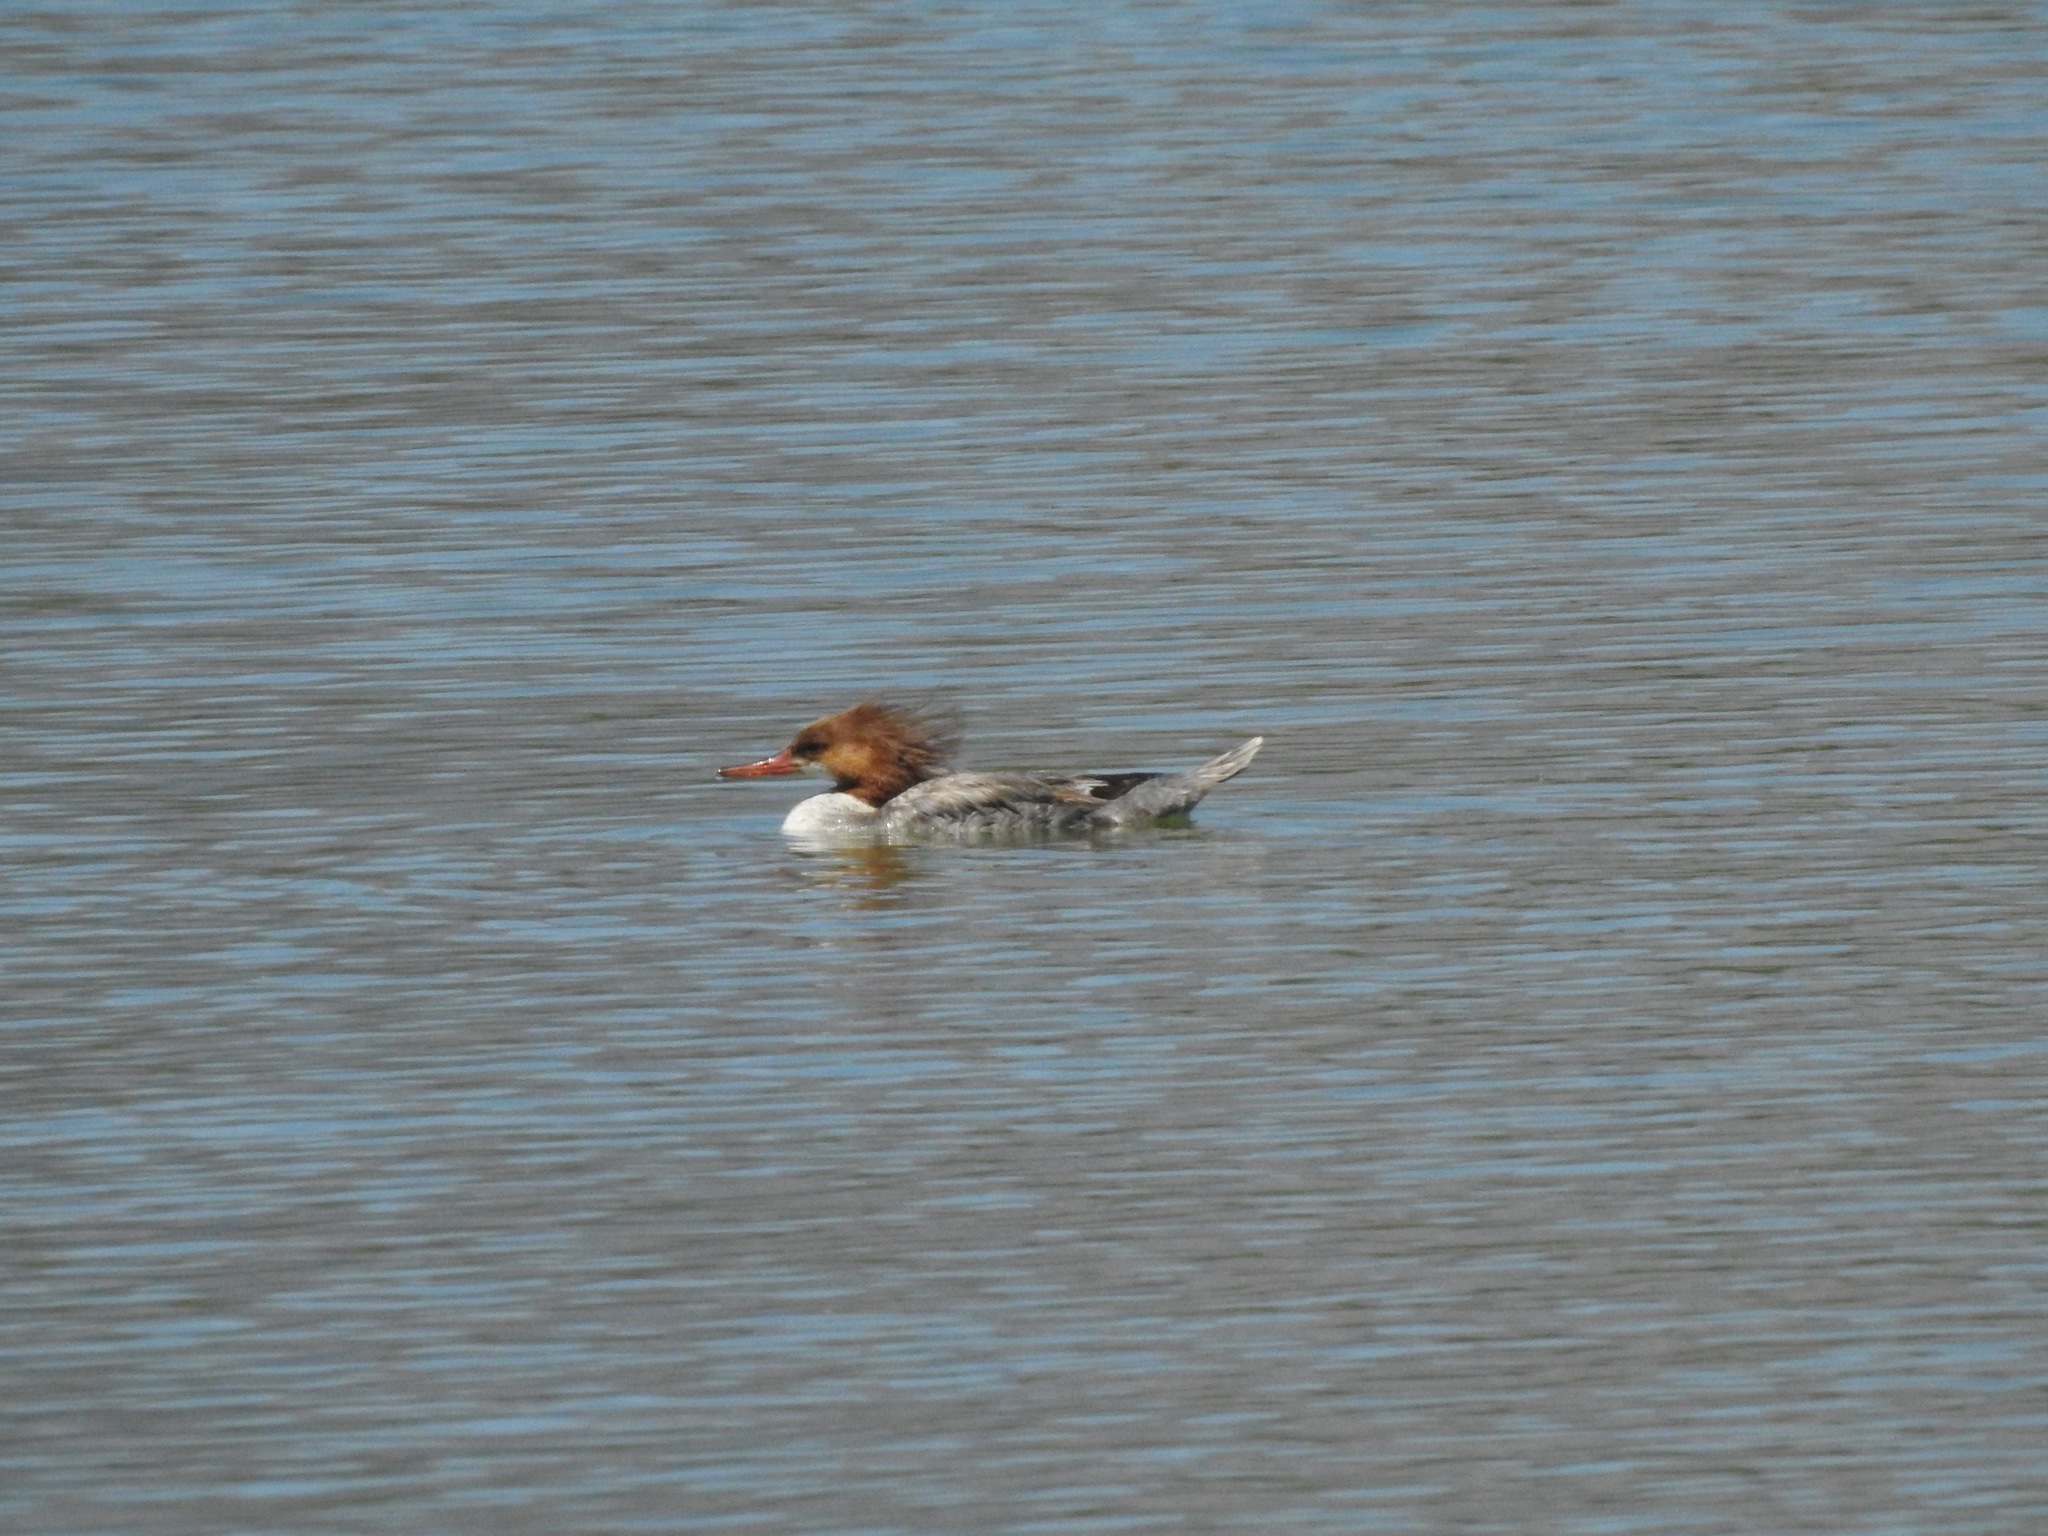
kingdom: Animalia
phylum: Chordata
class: Aves
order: Anseriformes
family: Anatidae
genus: Mergus
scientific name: Mergus merganser
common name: Common merganser
